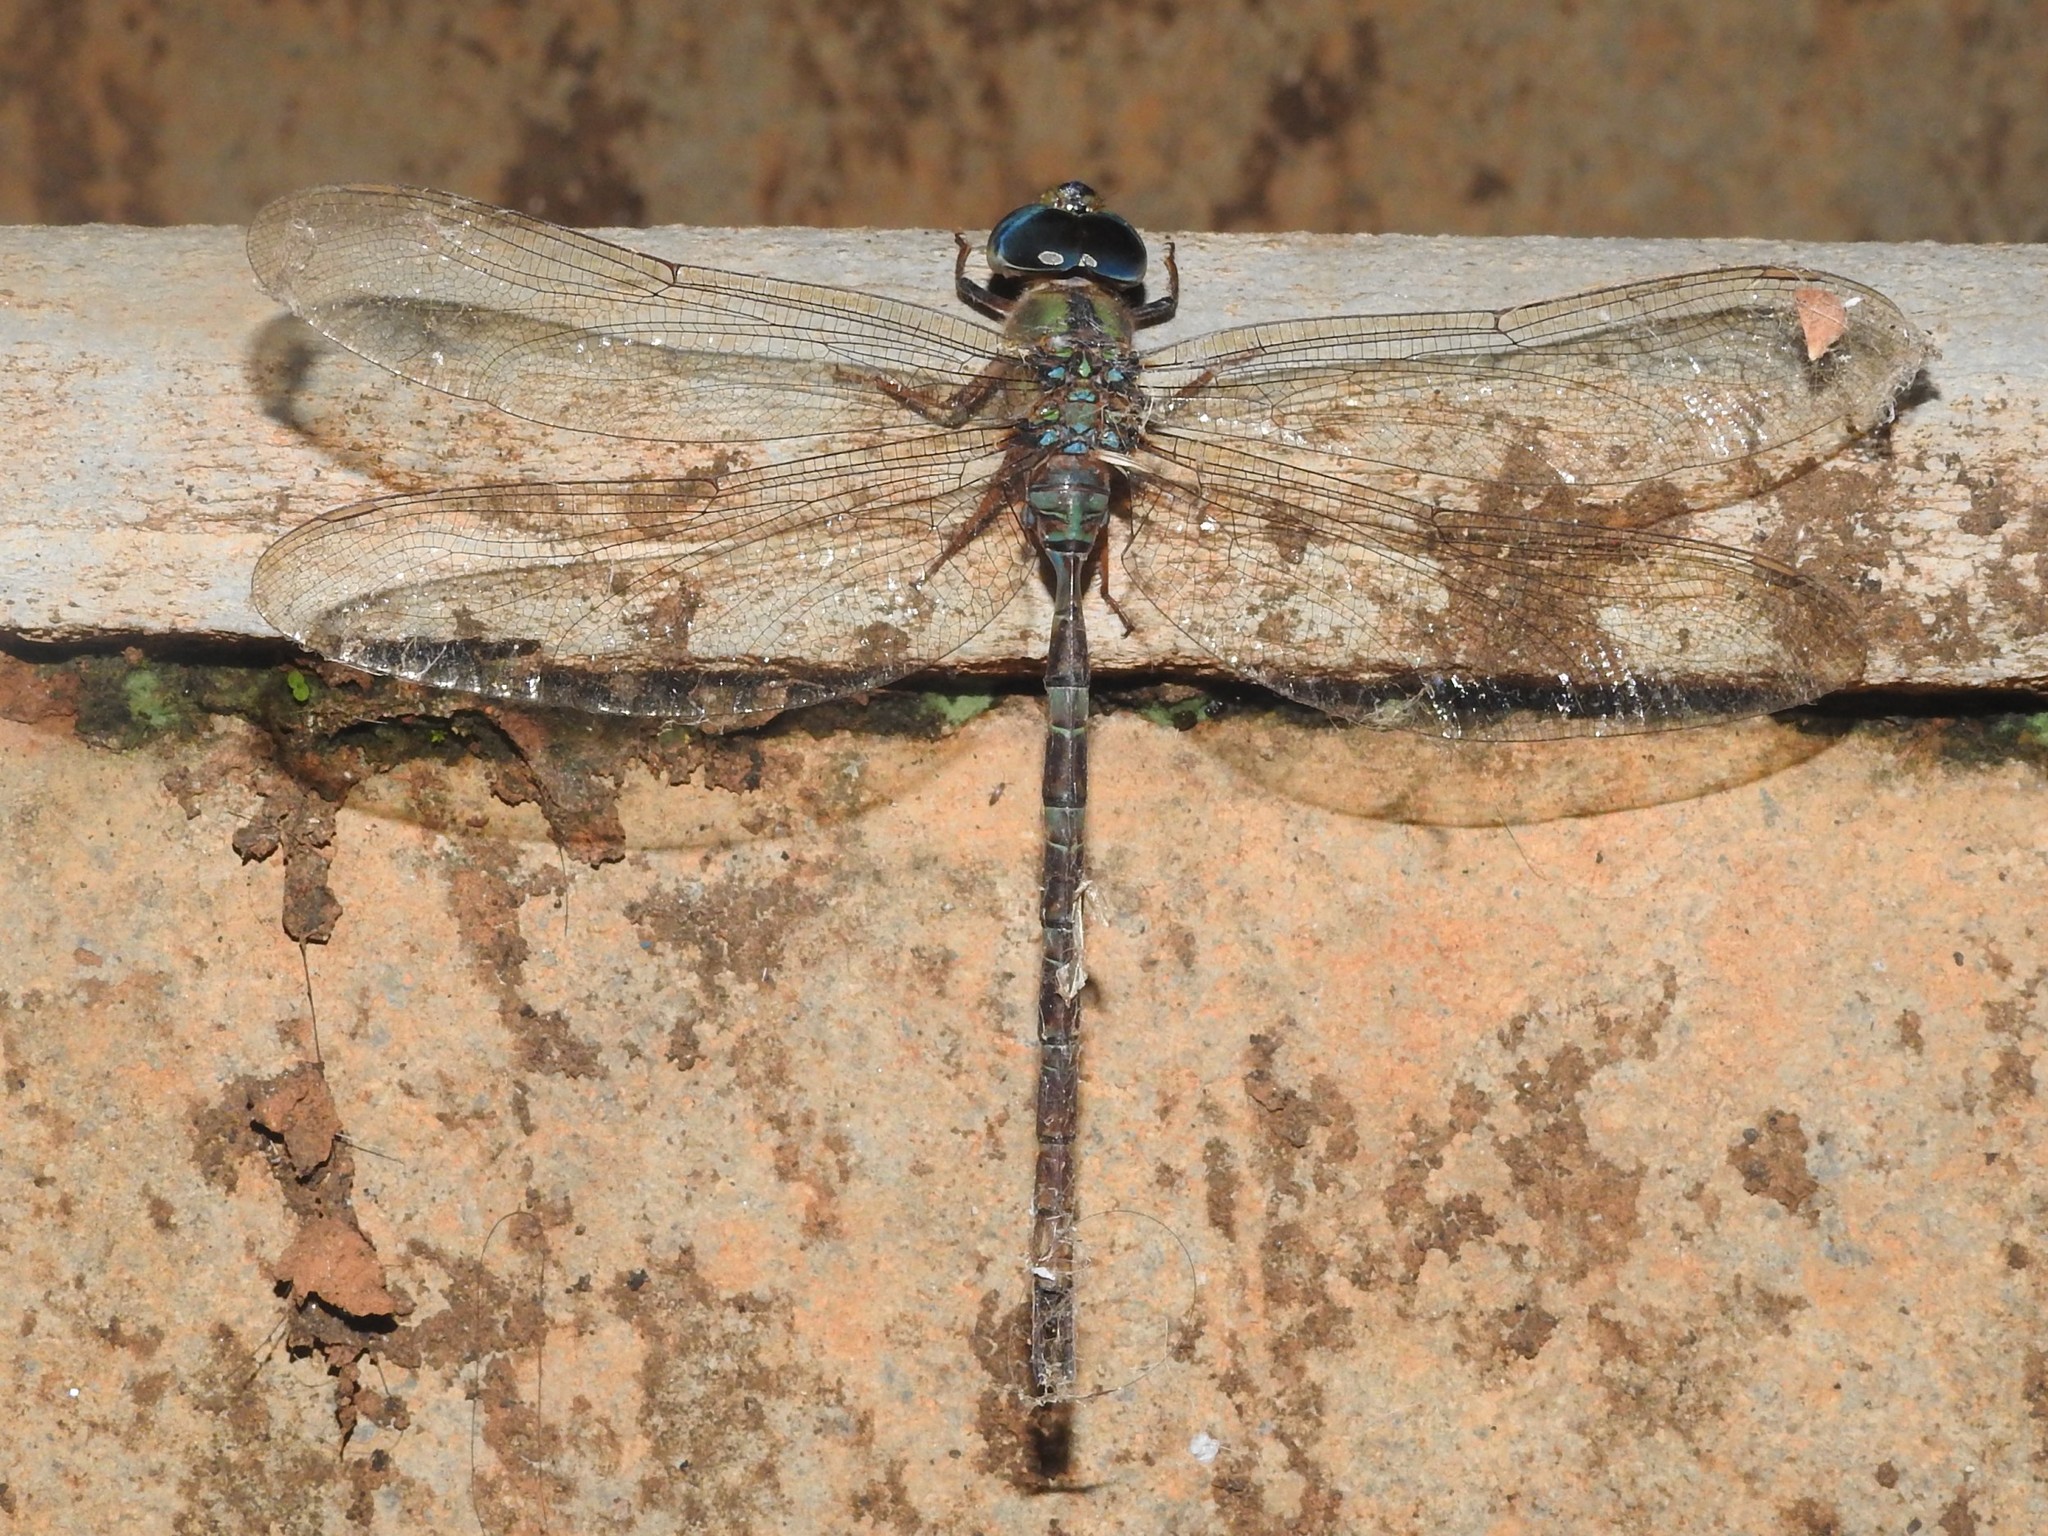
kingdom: Animalia
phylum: Arthropoda
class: Insecta
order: Odonata
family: Aeshnidae
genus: Gynacantha
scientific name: Gynacantha dravida
